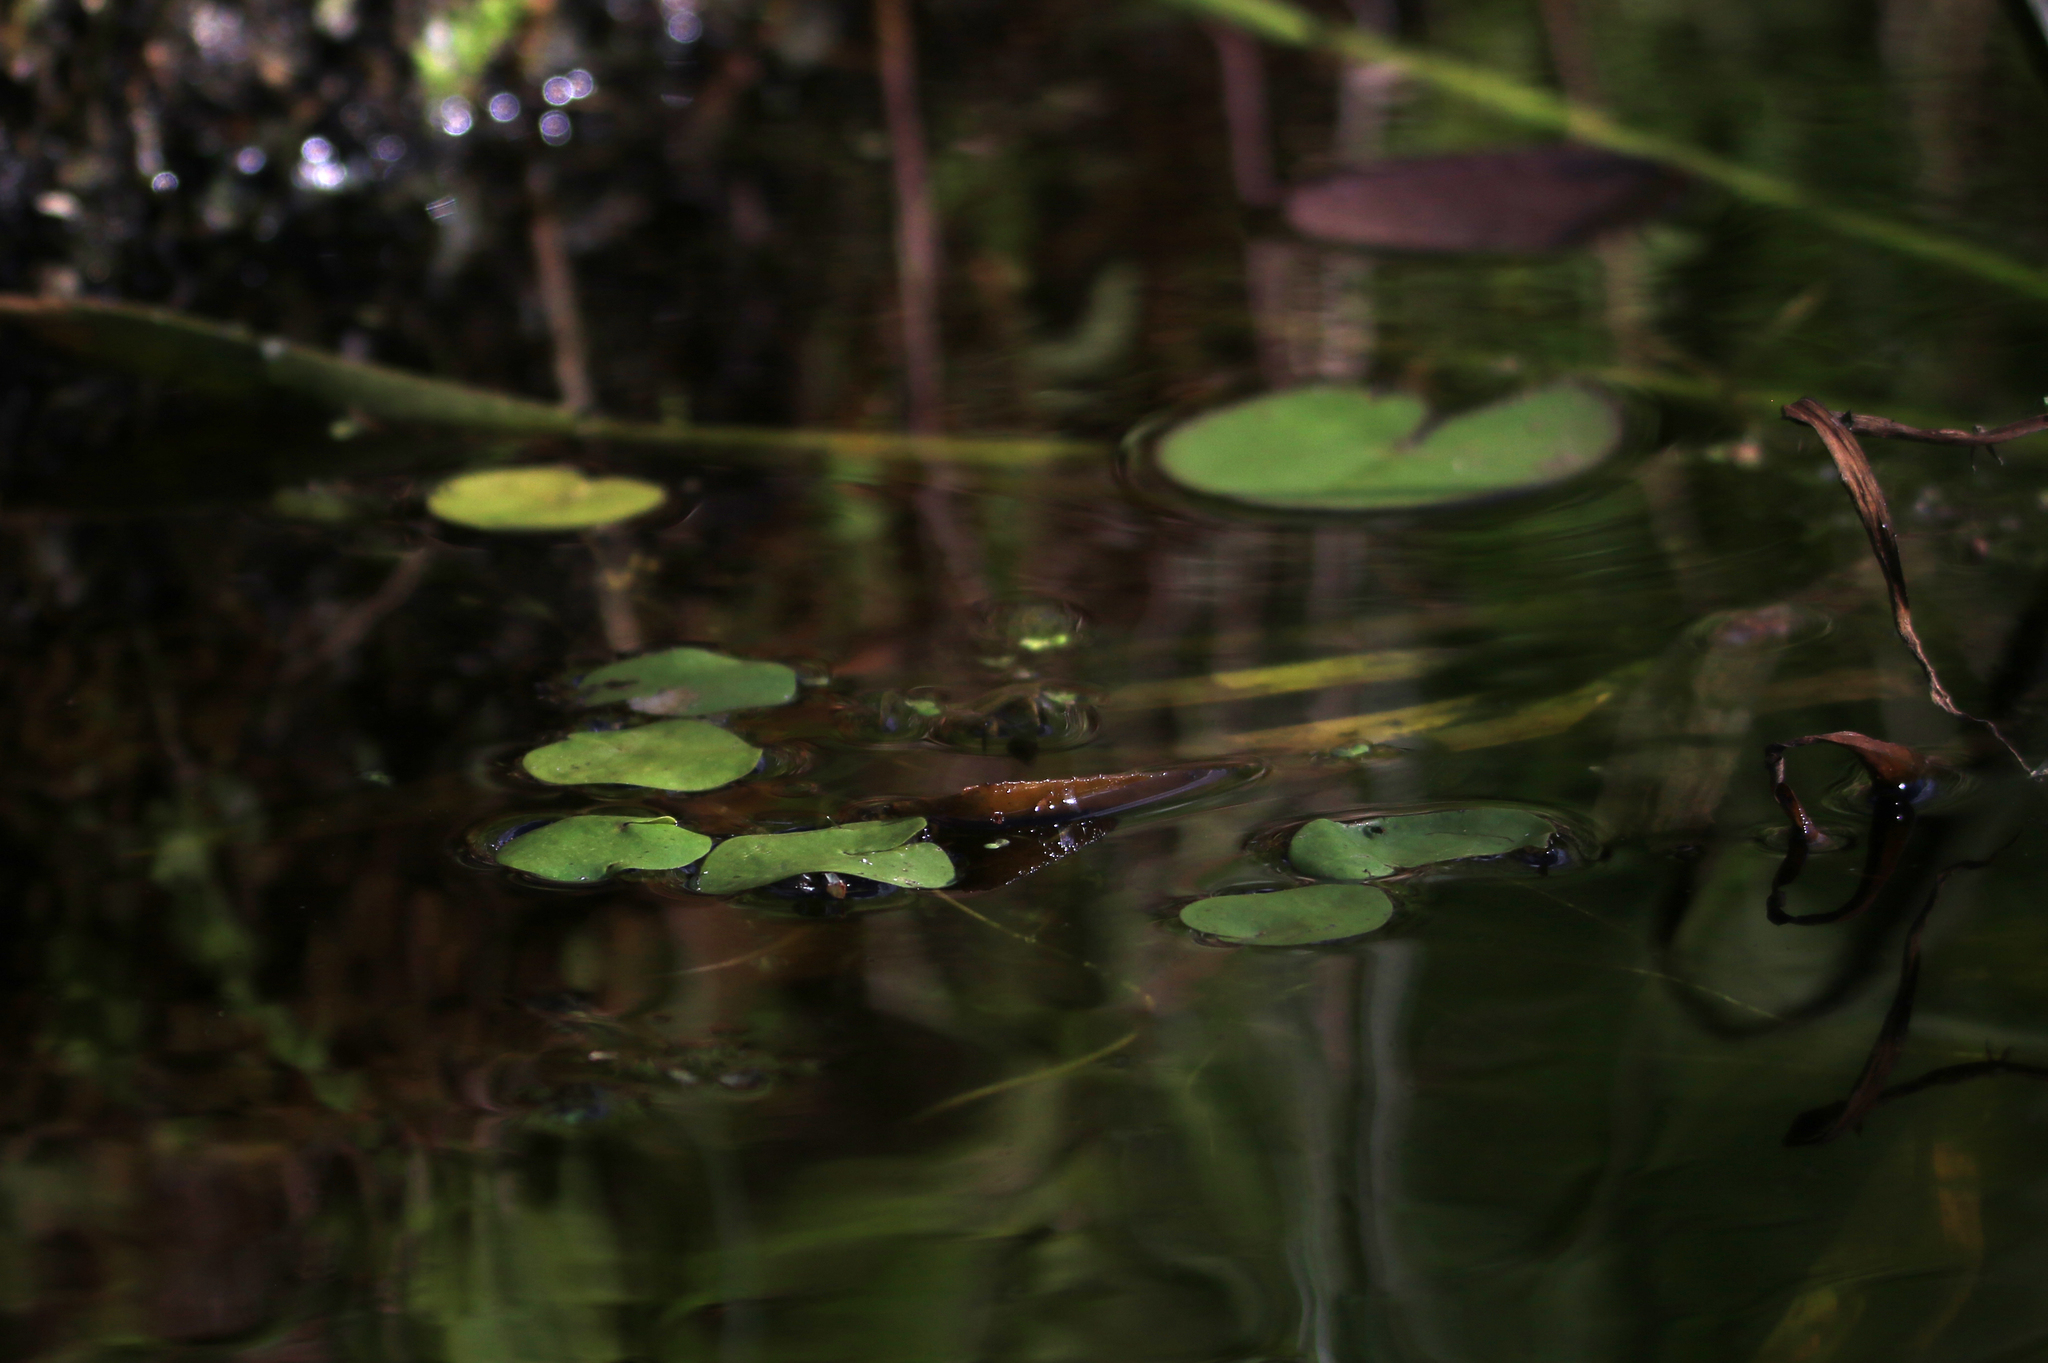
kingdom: Plantae
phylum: Tracheophyta
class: Liliopsida
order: Alismatales
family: Hydrocharitaceae
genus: Hydrocharis
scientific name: Hydrocharis morsus-ranae
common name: Frogbit
